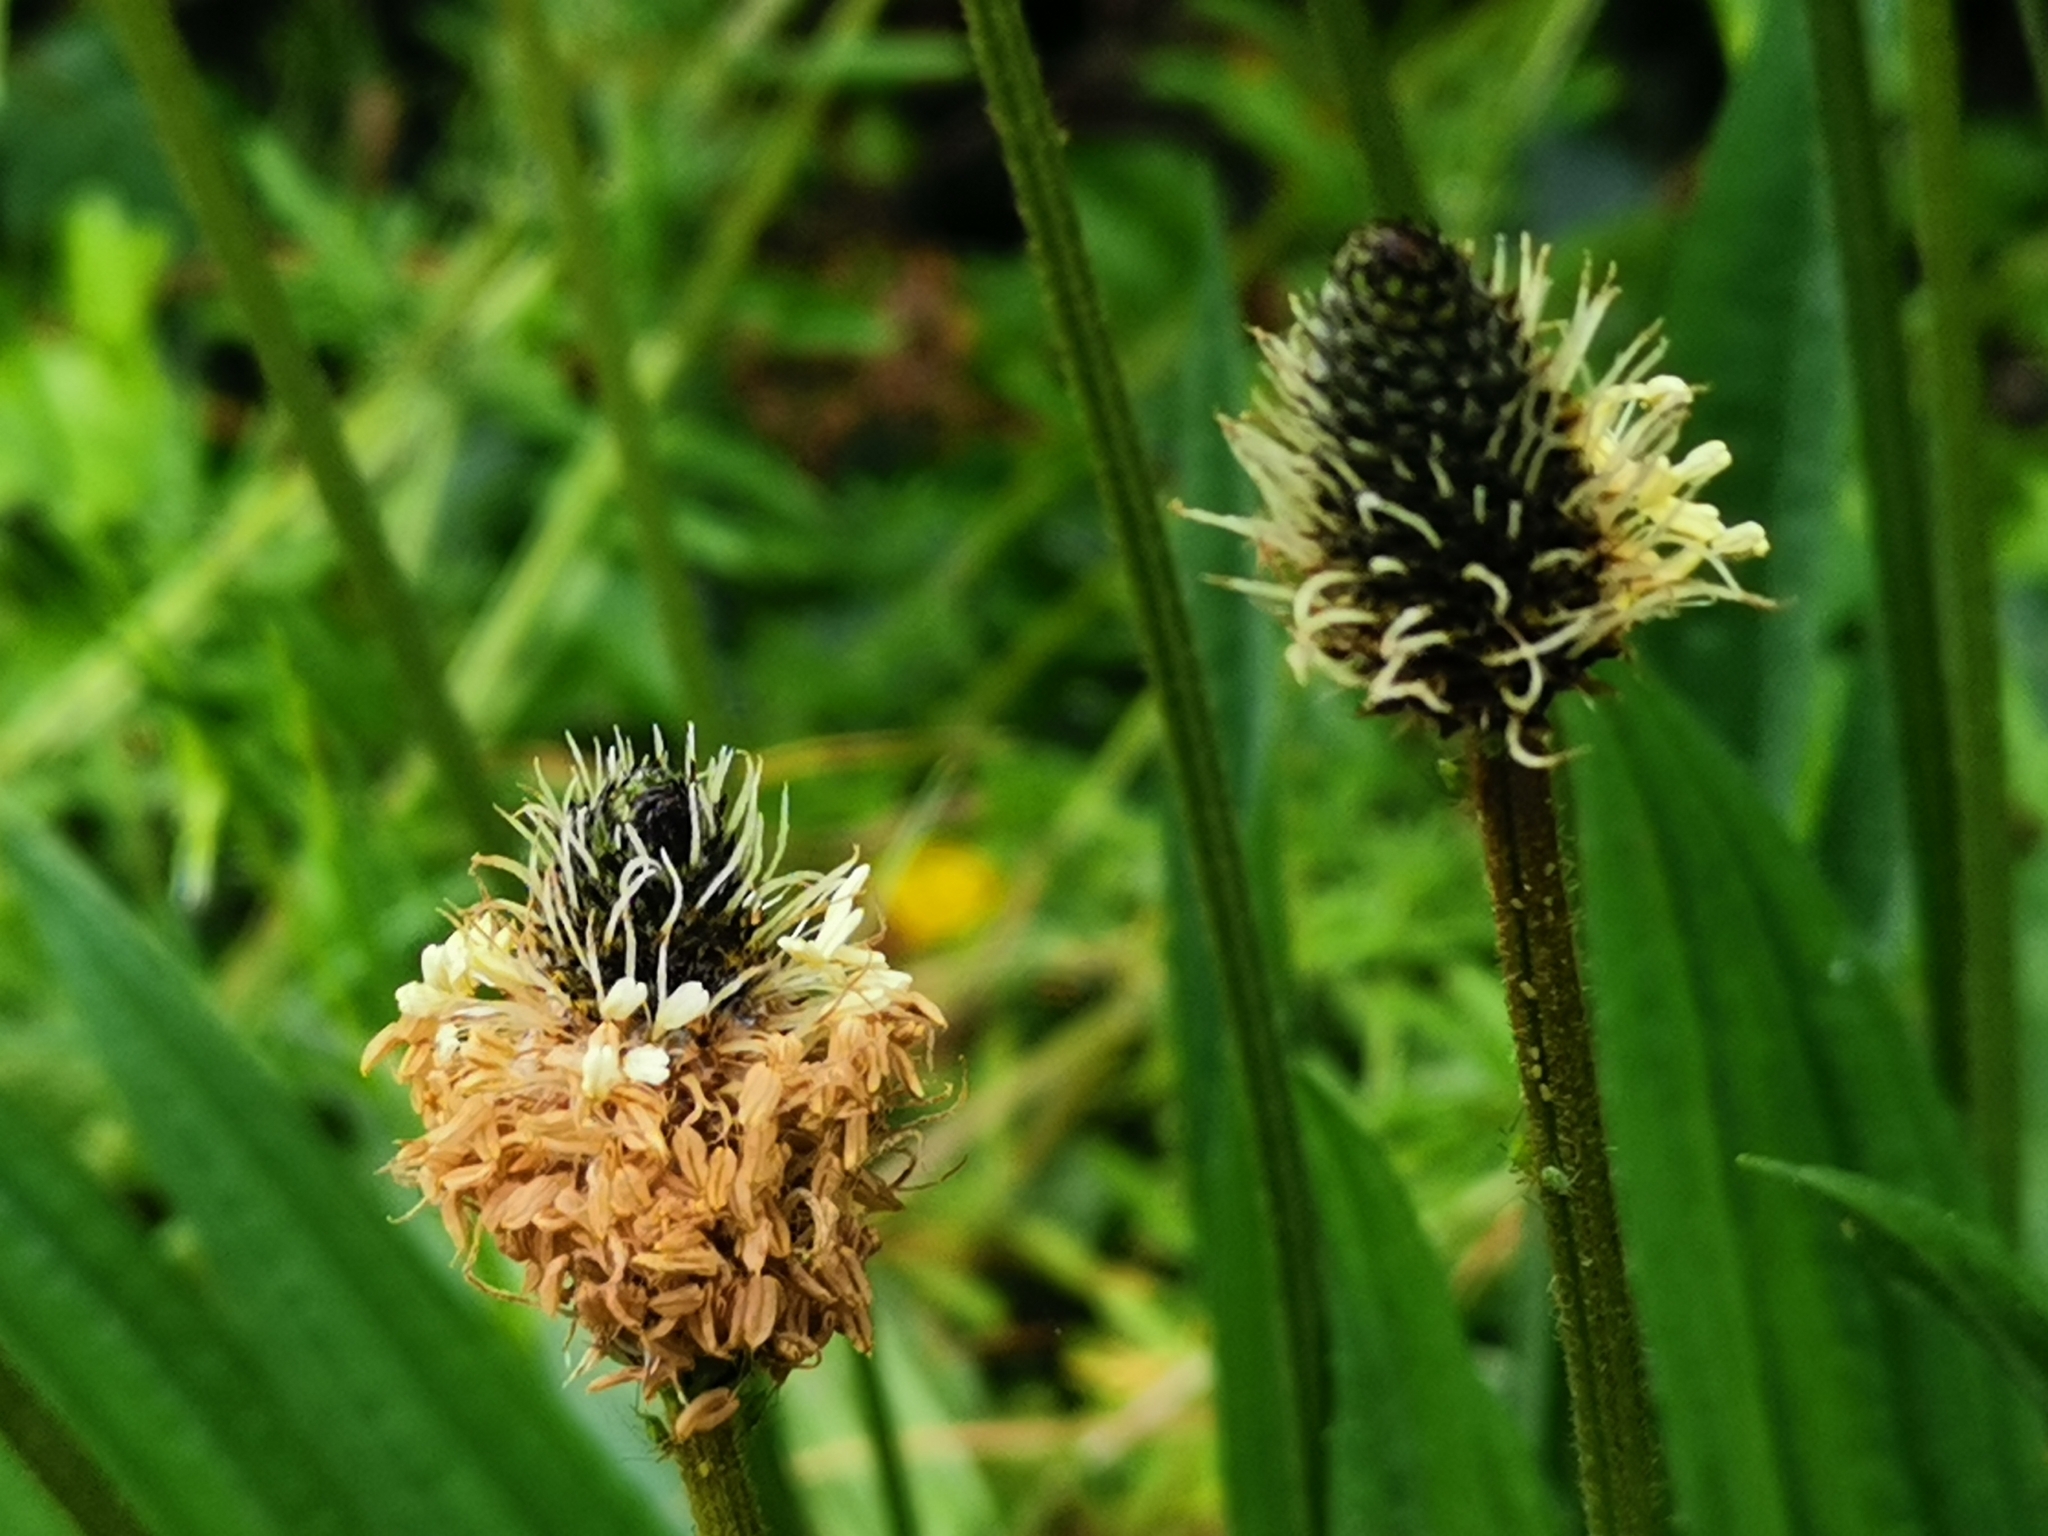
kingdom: Plantae
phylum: Tracheophyta
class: Magnoliopsida
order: Lamiales
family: Plantaginaceae
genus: Plantago
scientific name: Plantago lanceolata
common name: Ribwort plantain
